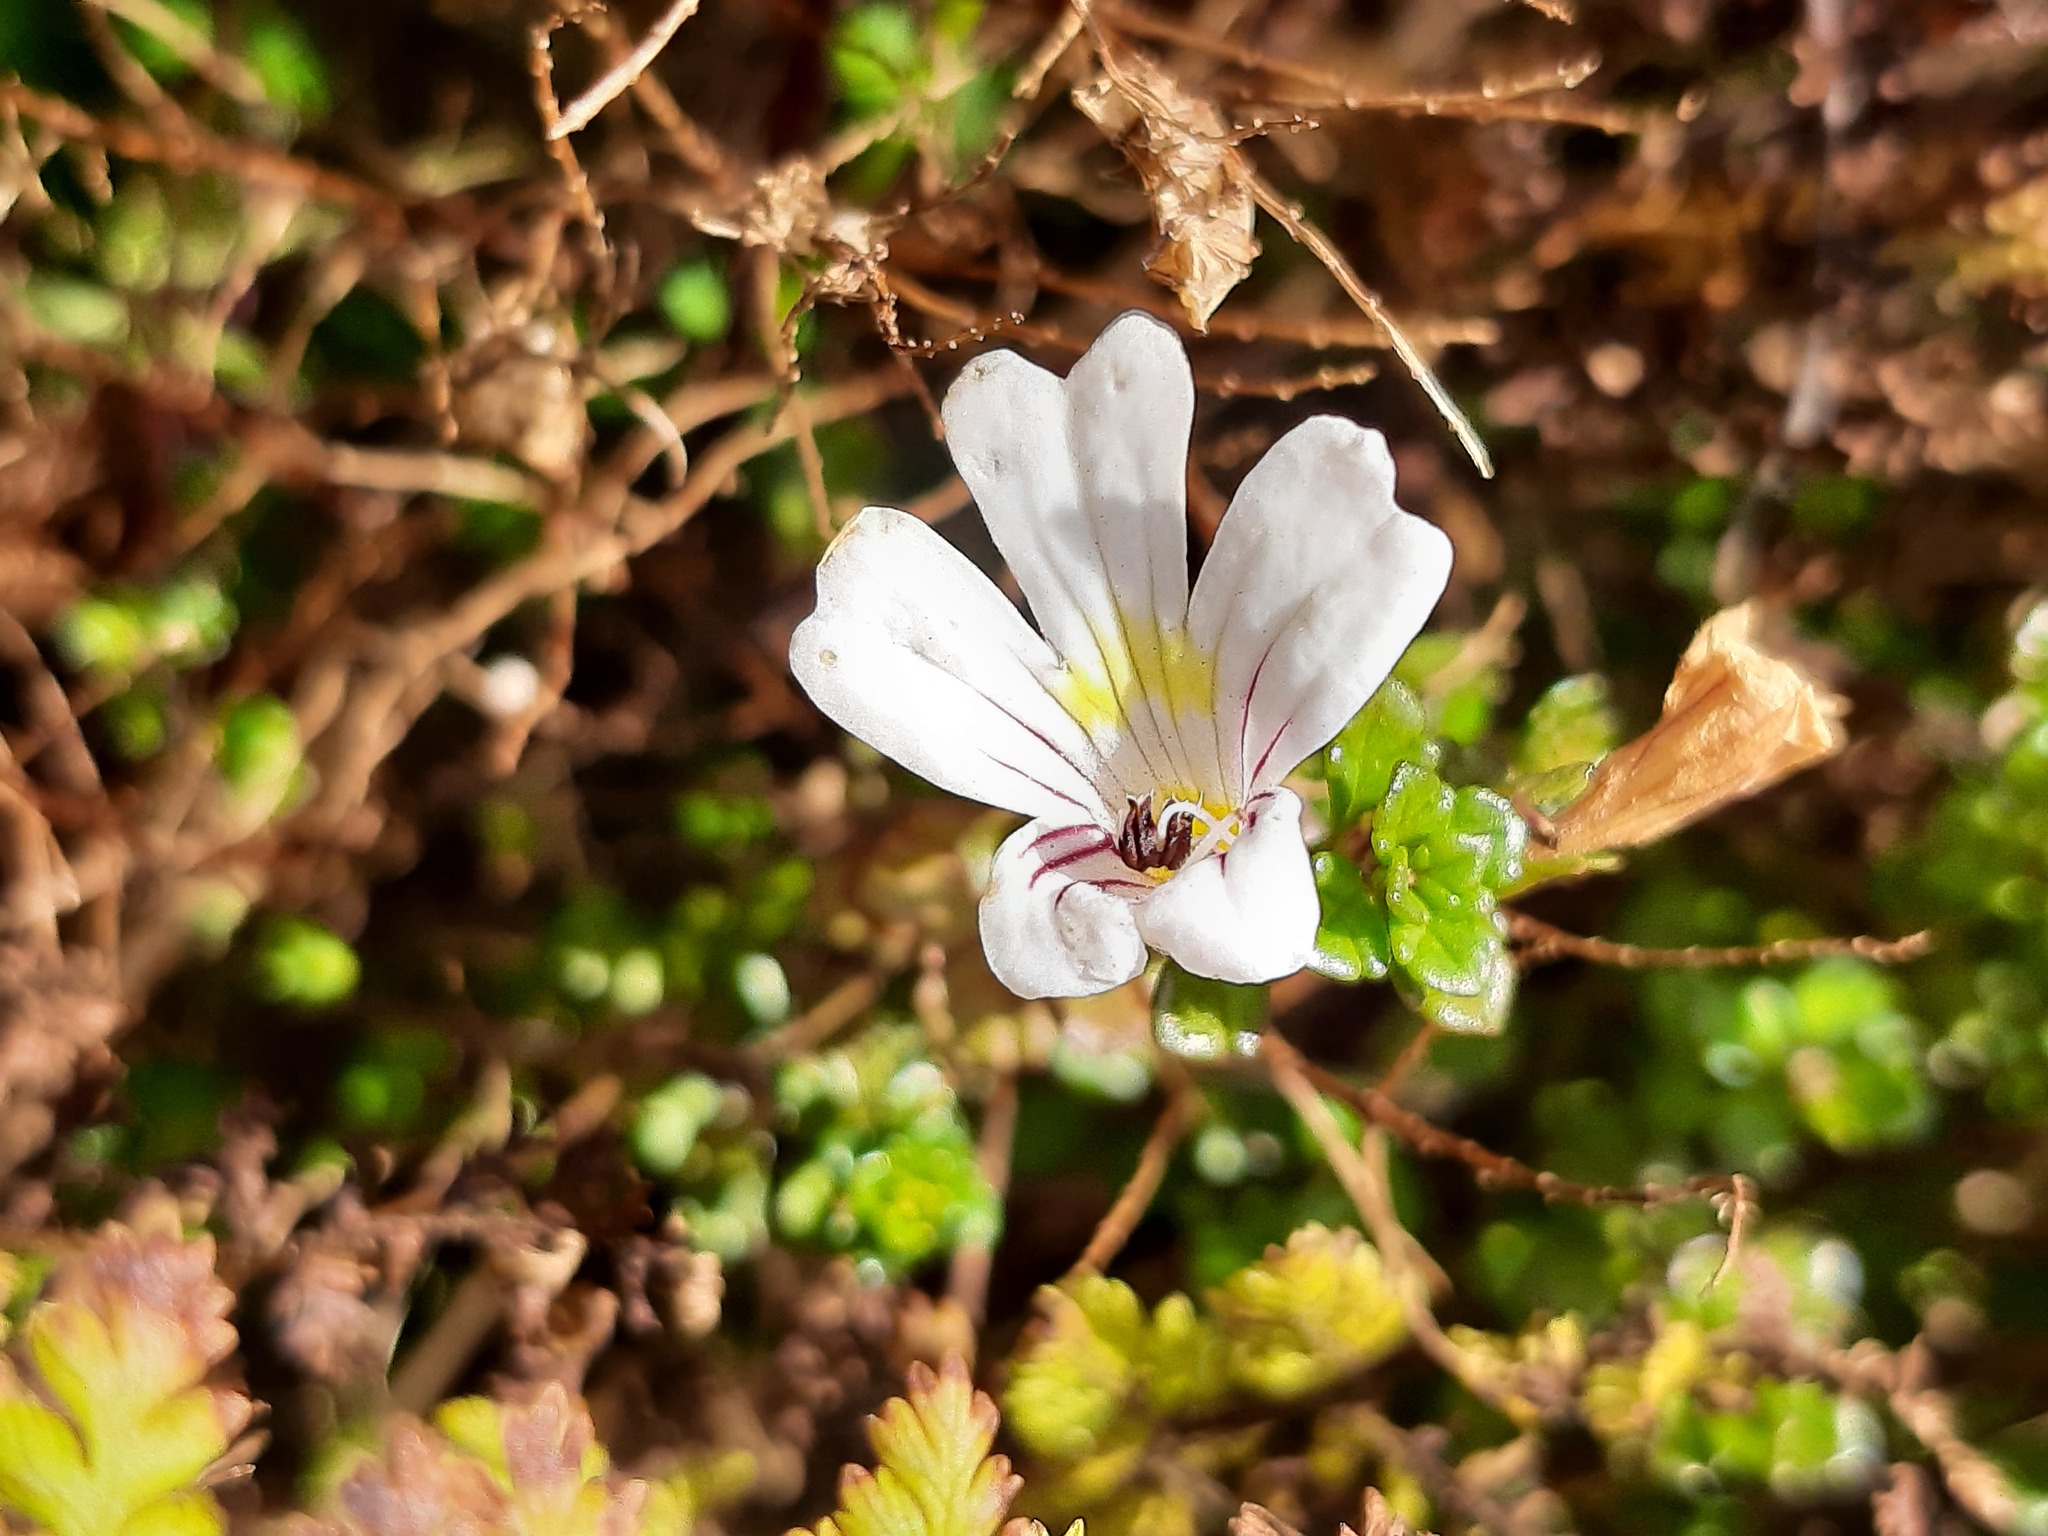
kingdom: Plantae
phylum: Tracheophyta
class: Magnoliopsida
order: Lamiales
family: Orobanchaceae
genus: Euphrasia
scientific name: Euphrasia cuneata
